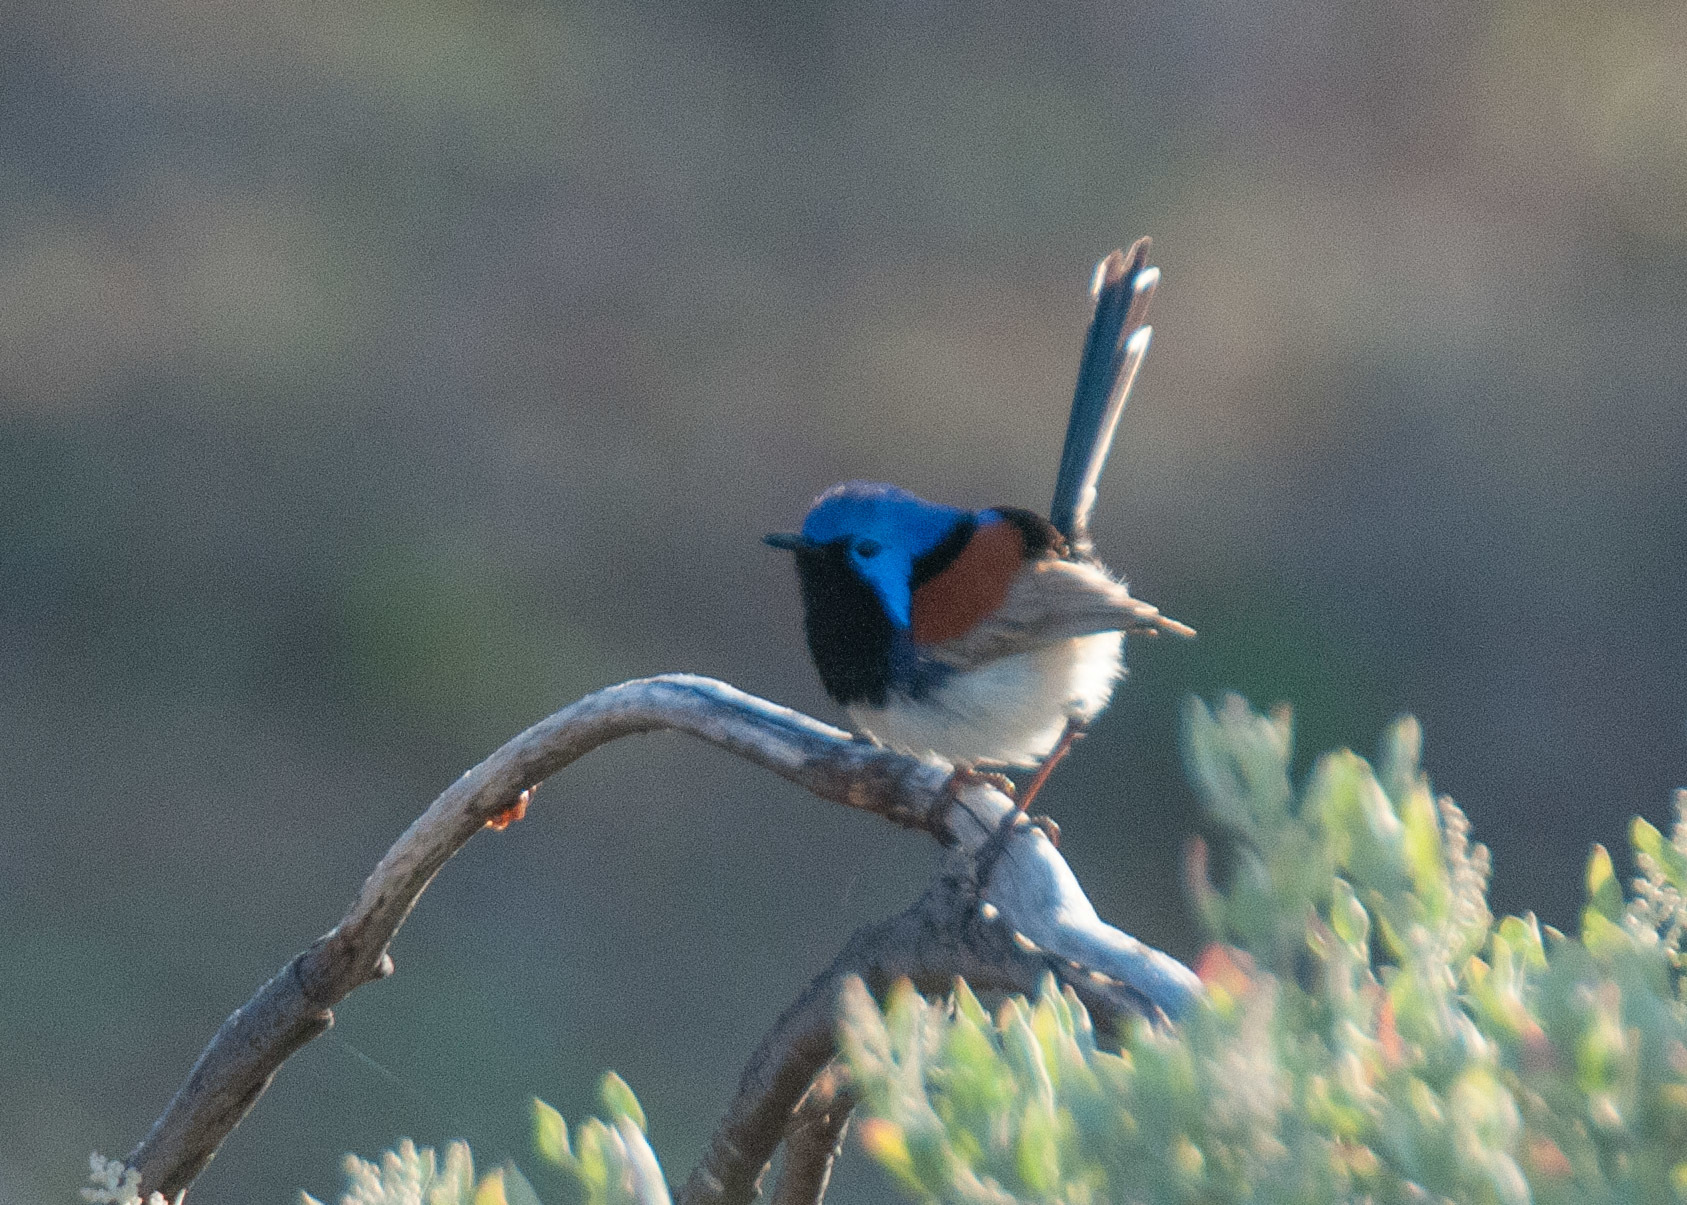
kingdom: Animalia
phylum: Chordata
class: Aves
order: Passeriformes
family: Maluridae
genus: Malurus
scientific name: Malurus assimilis
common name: Purple-backed fairywren
